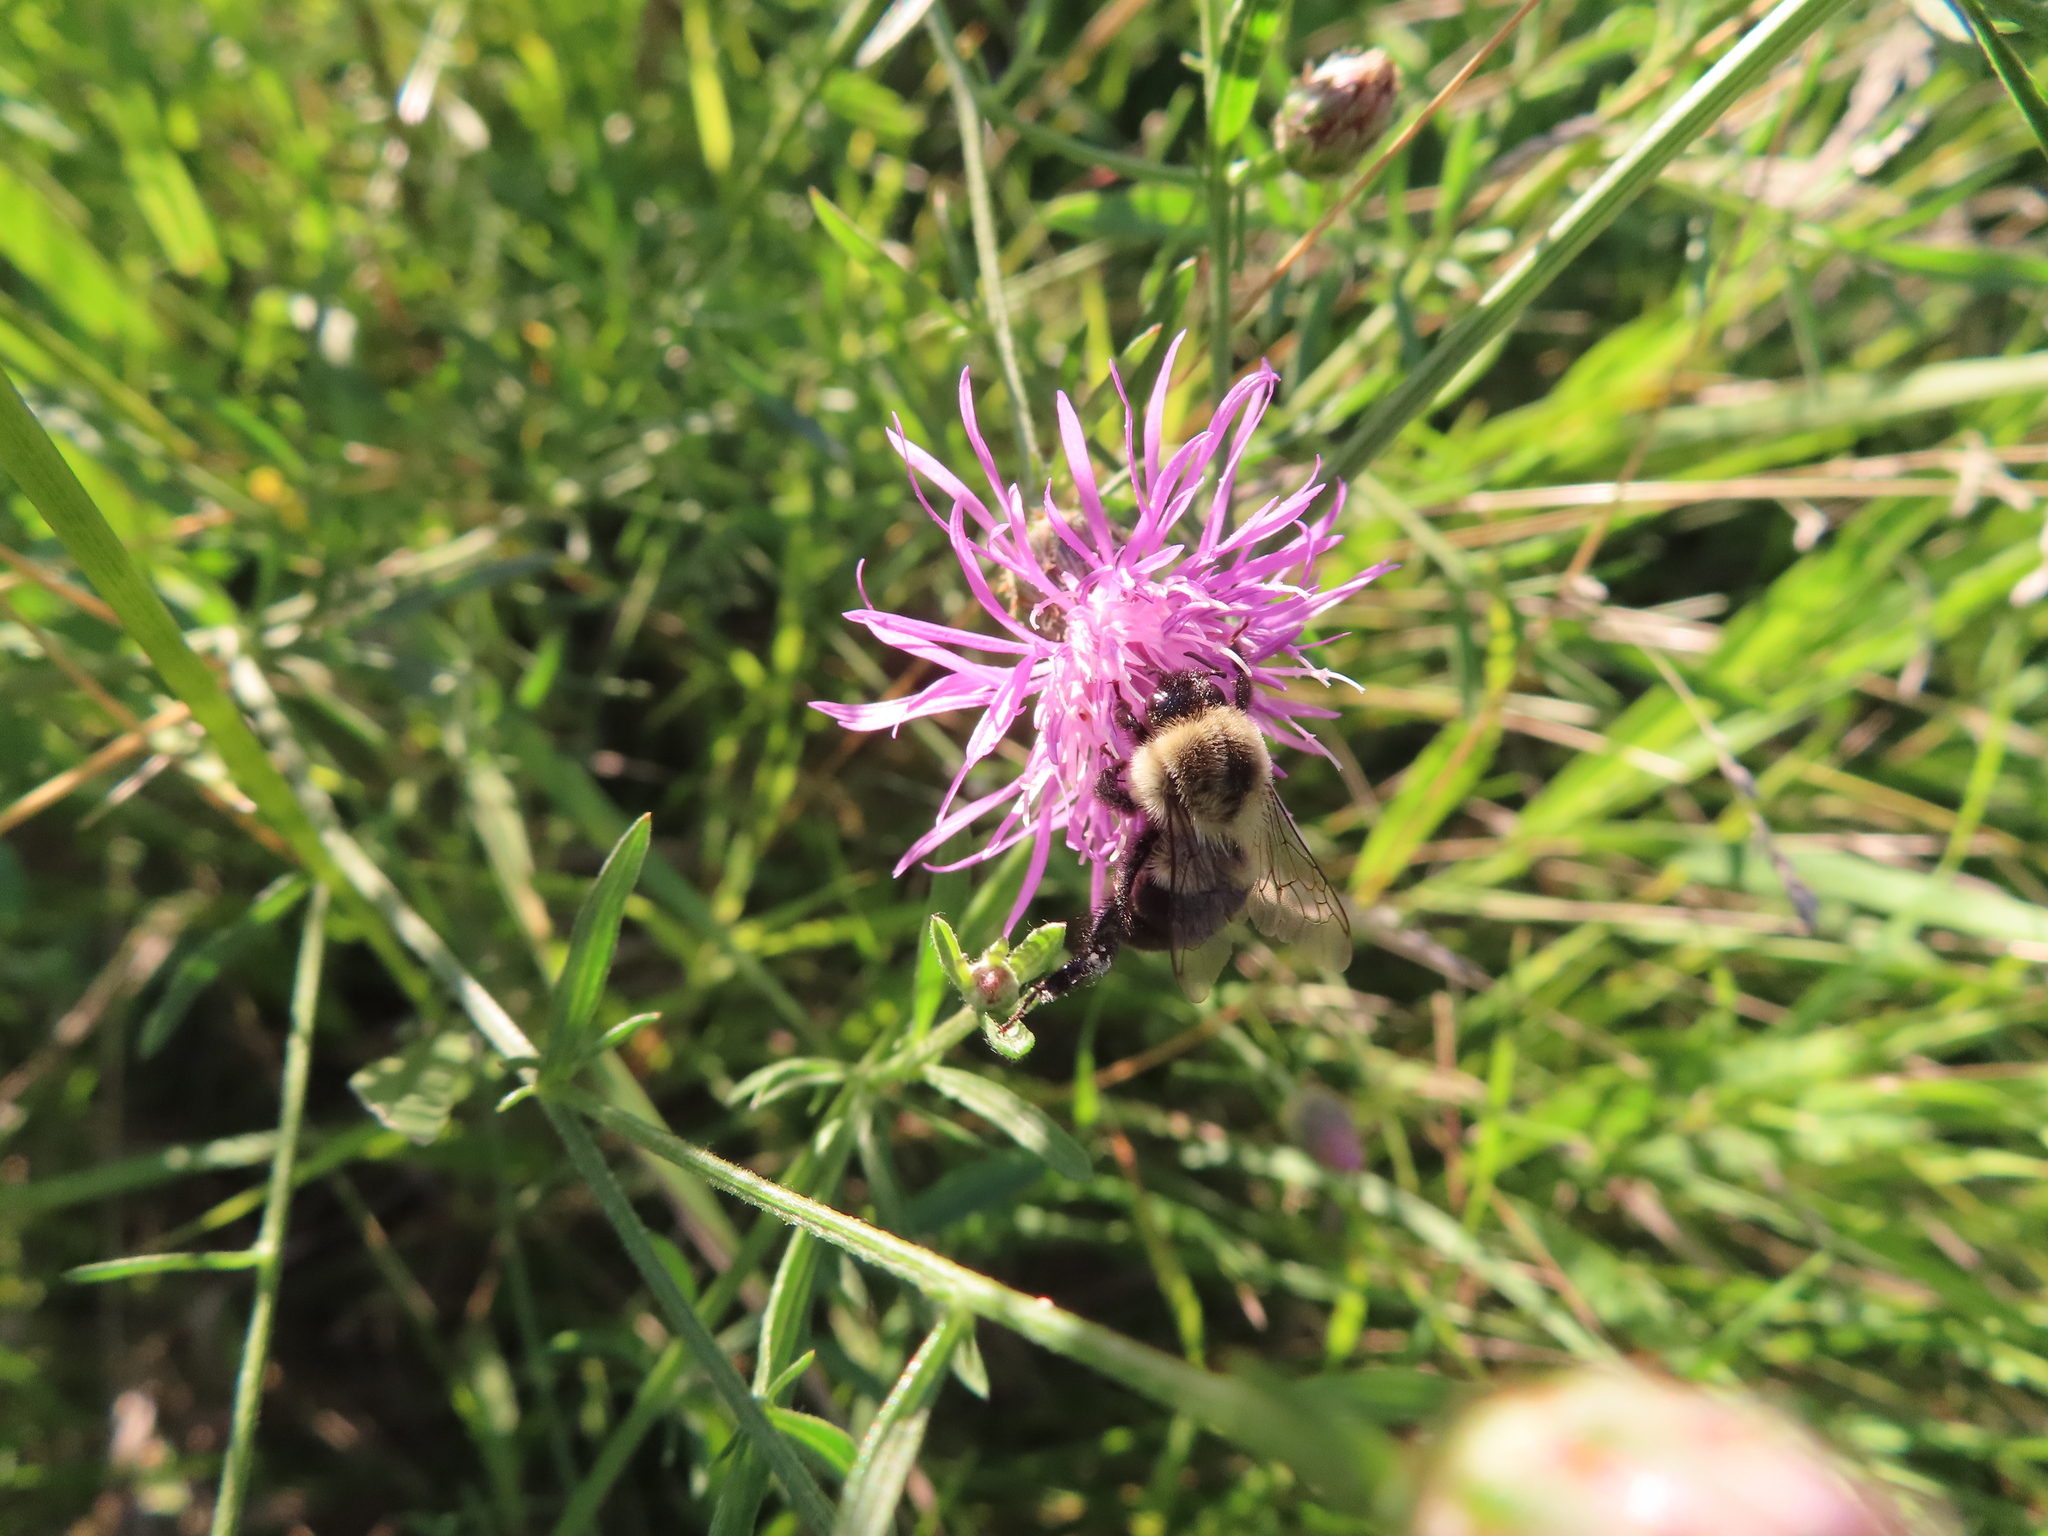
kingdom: Animalia
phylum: Arthropoda
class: Insecta
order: Hymenoptera
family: Apidae
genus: Bombus
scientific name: Bombus griseocollis
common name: Brown-belted bumble bee
